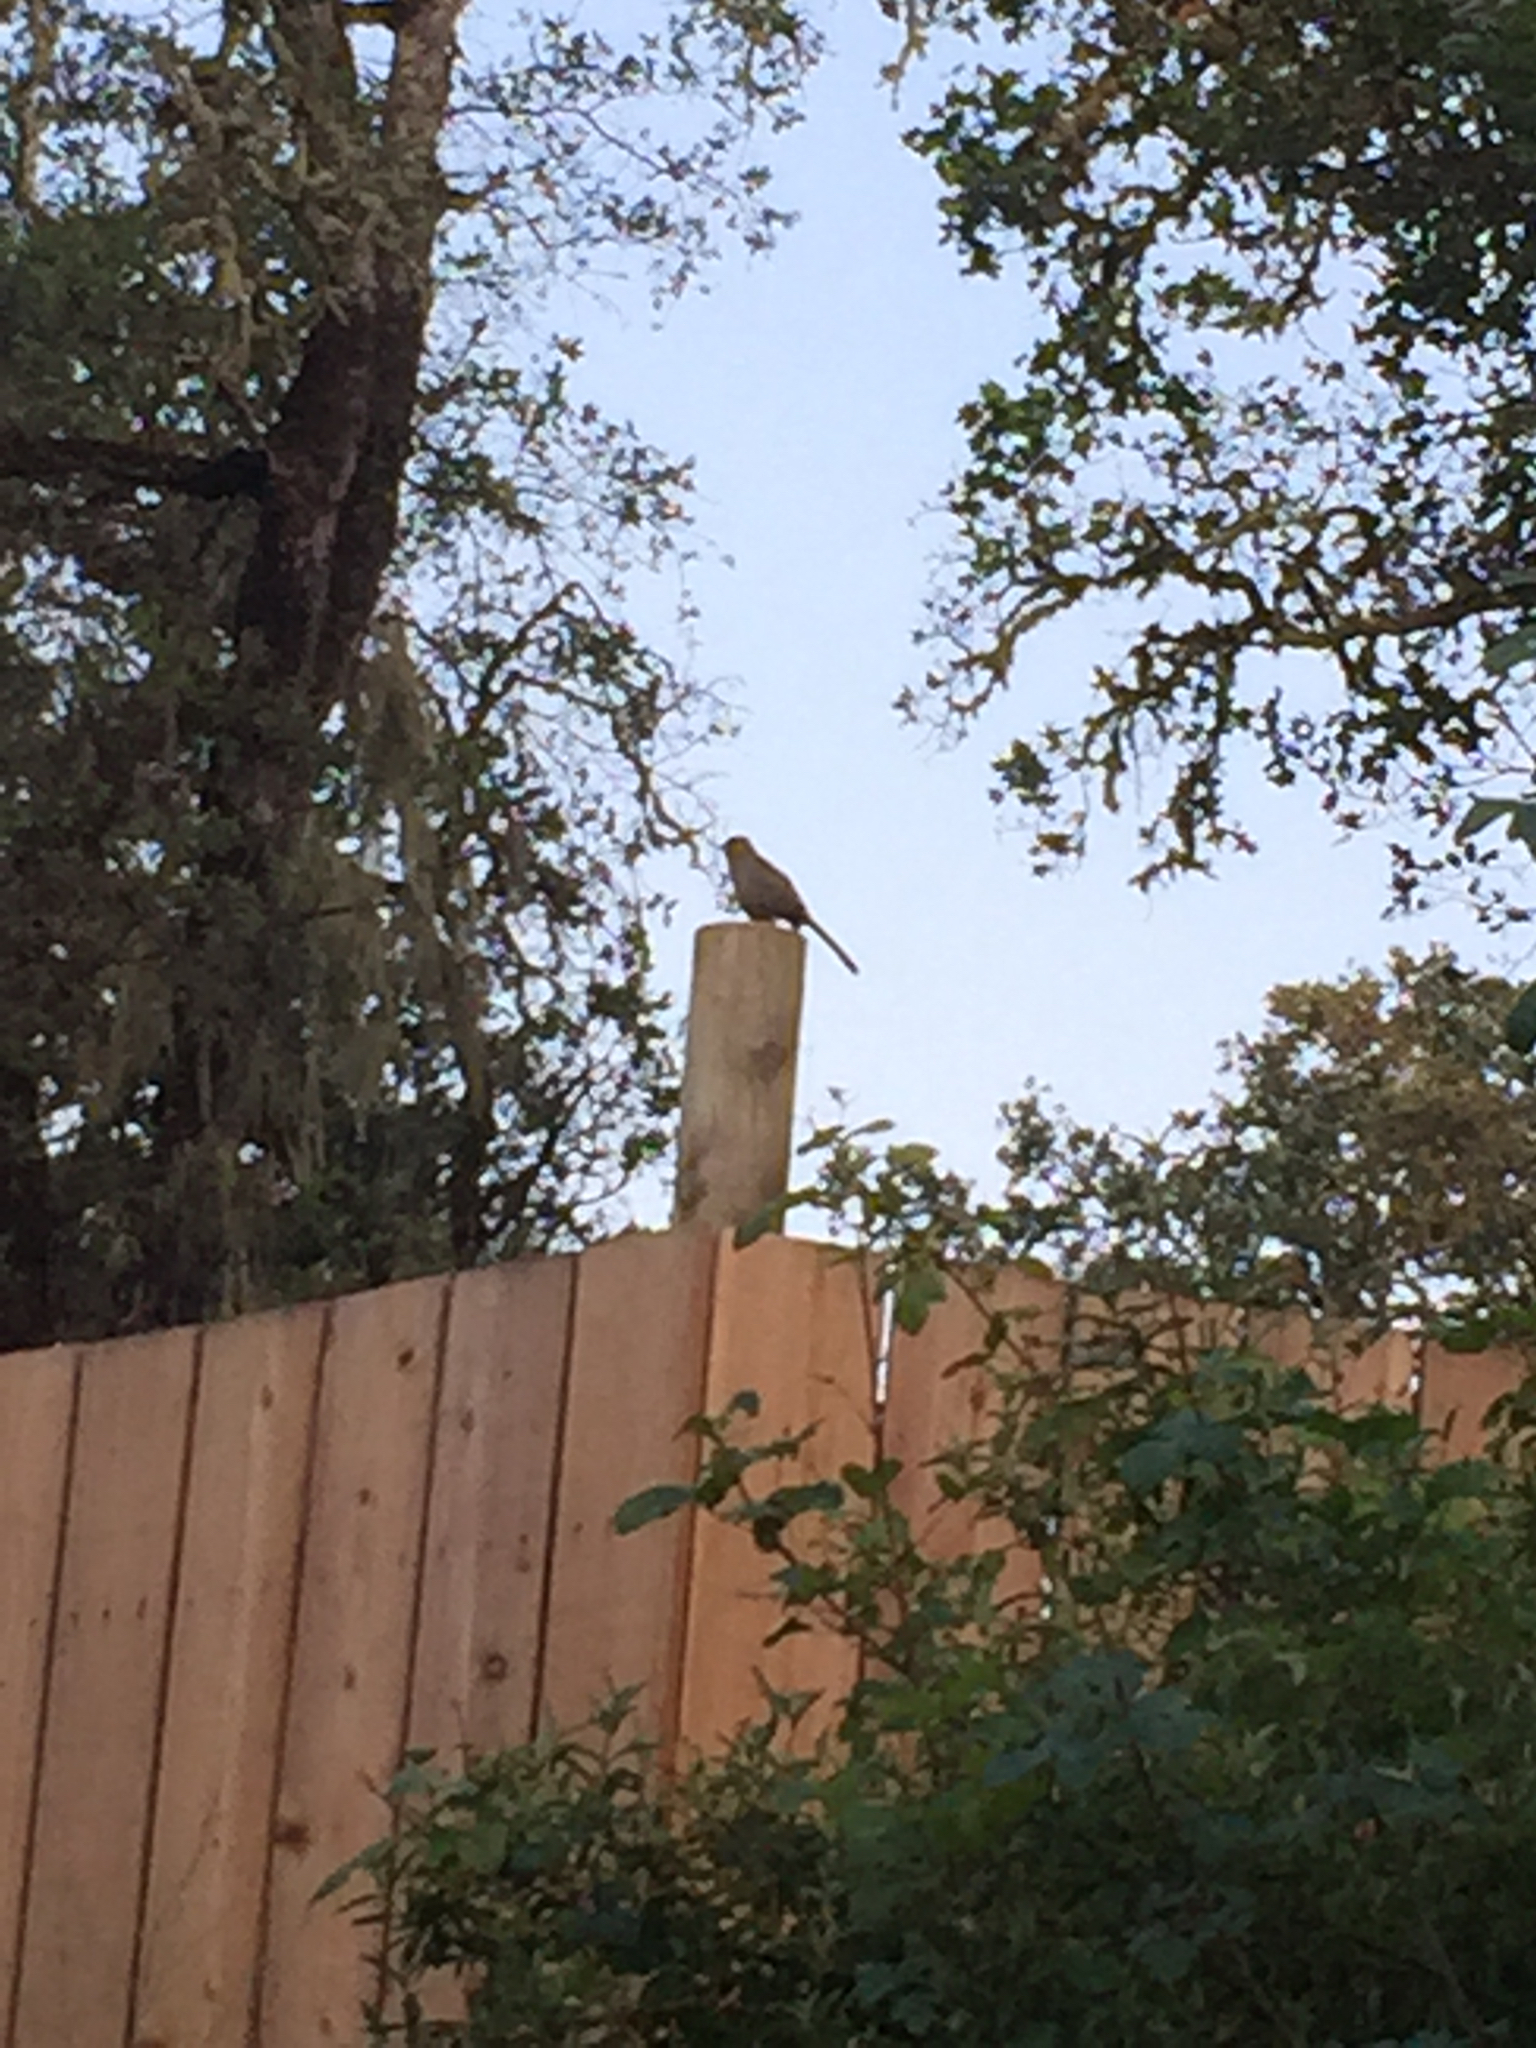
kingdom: Animalia
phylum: Chordata
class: Aves
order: Passeriformes
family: Passerellidae
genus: Melozone
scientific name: Melozone crissalis
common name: California towhee
